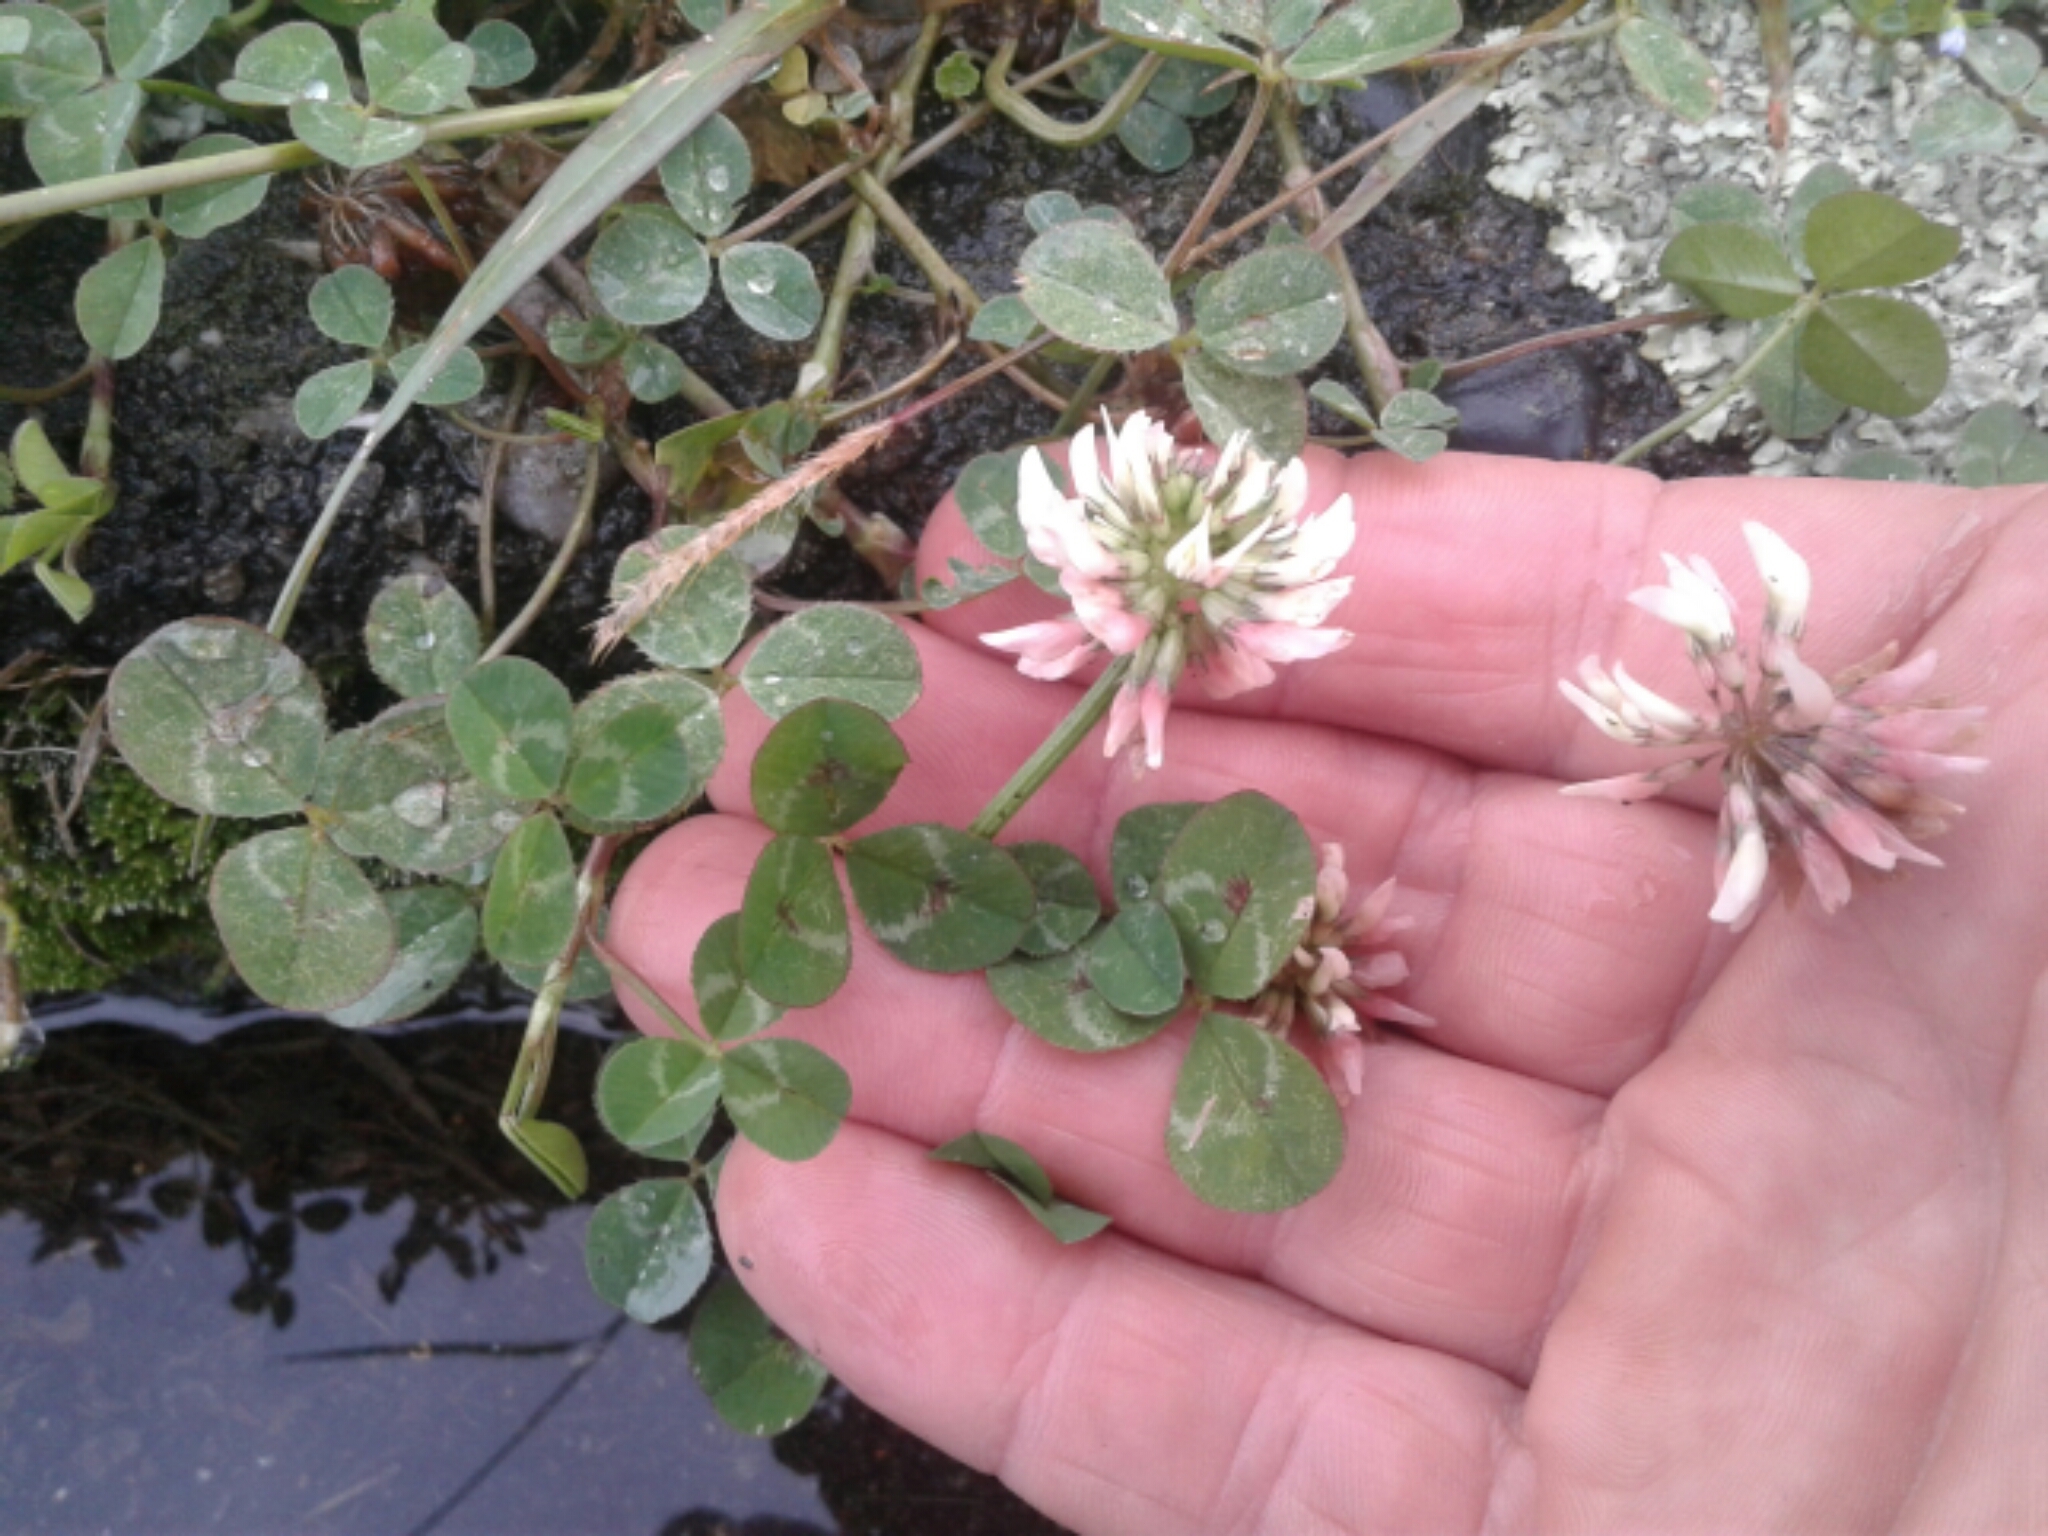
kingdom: Plantae
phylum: Tracheophyta
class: Magnoliopsida
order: Fabales
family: Fabaceae
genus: Trifolium
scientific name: Trifolium repens
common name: White clover
